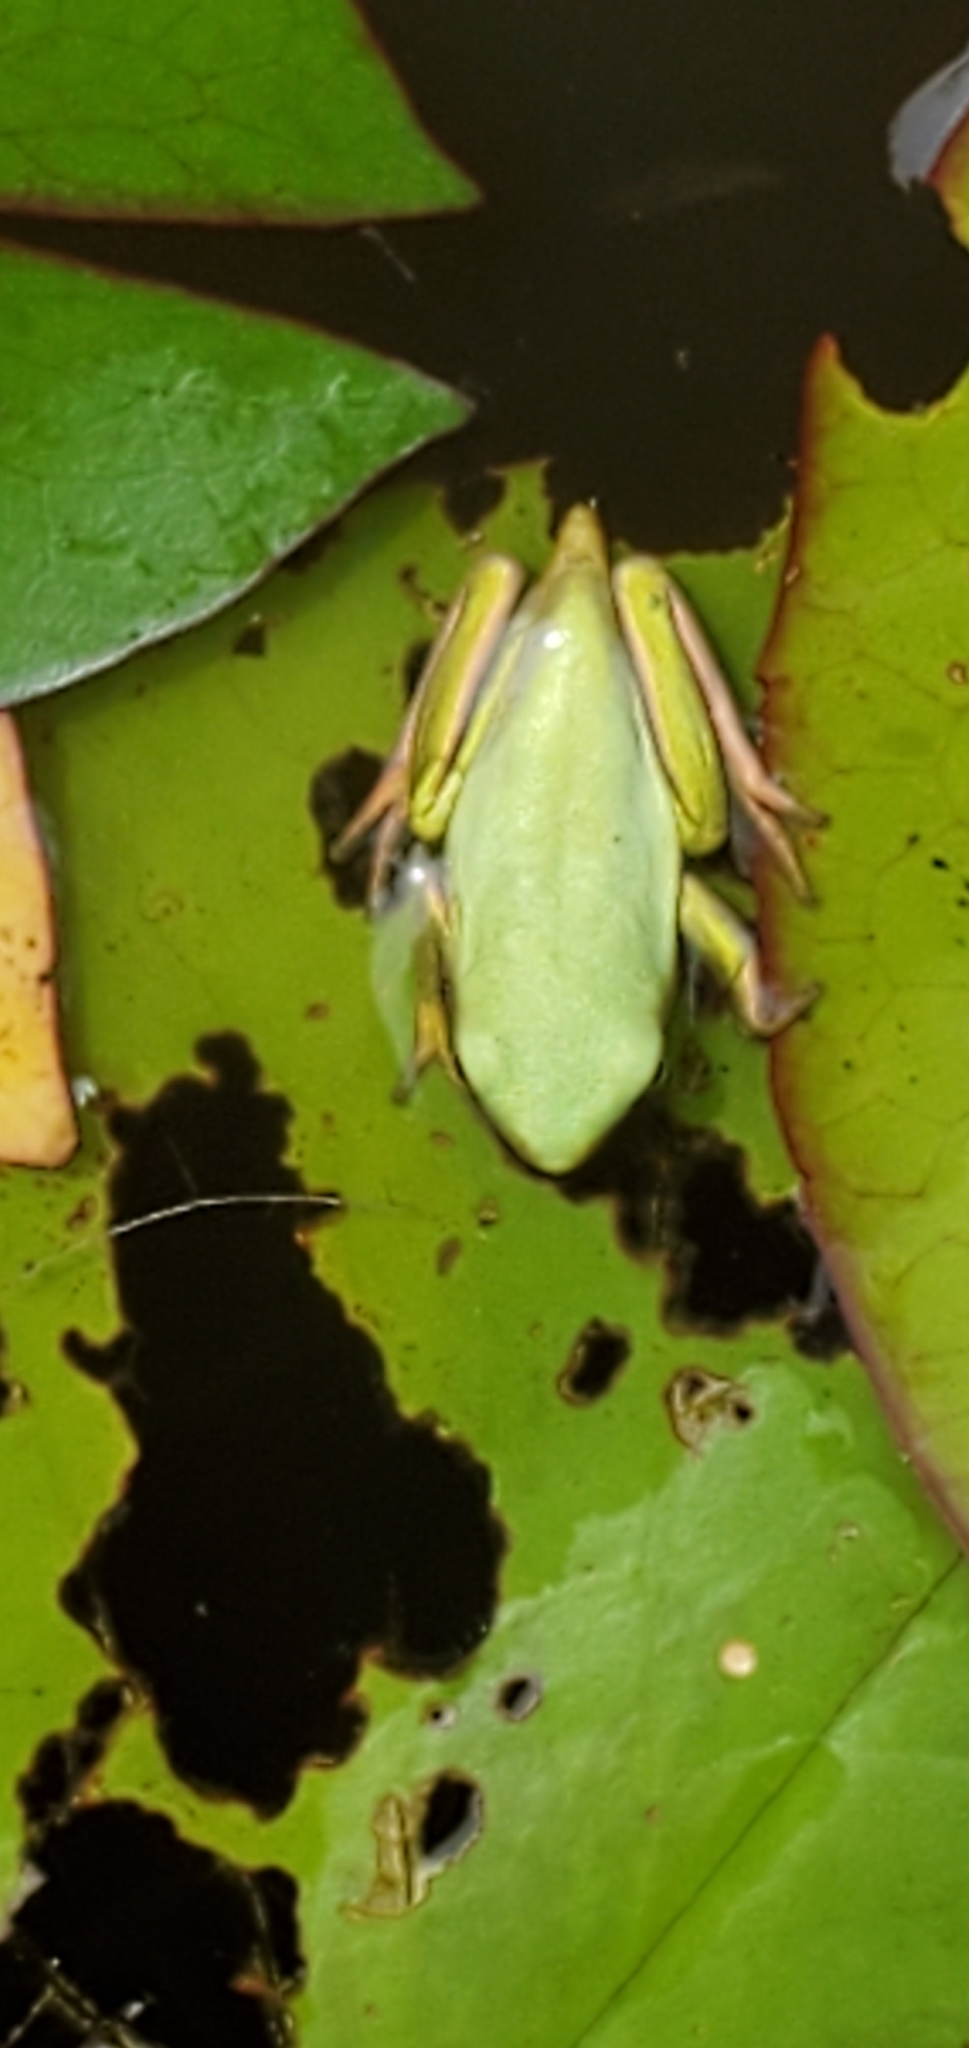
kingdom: Animalia
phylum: Chordata
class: Amphibia
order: Anura
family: Hylidae
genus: Dryophytes
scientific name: Dryophytes cinereus
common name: Green treefrog
